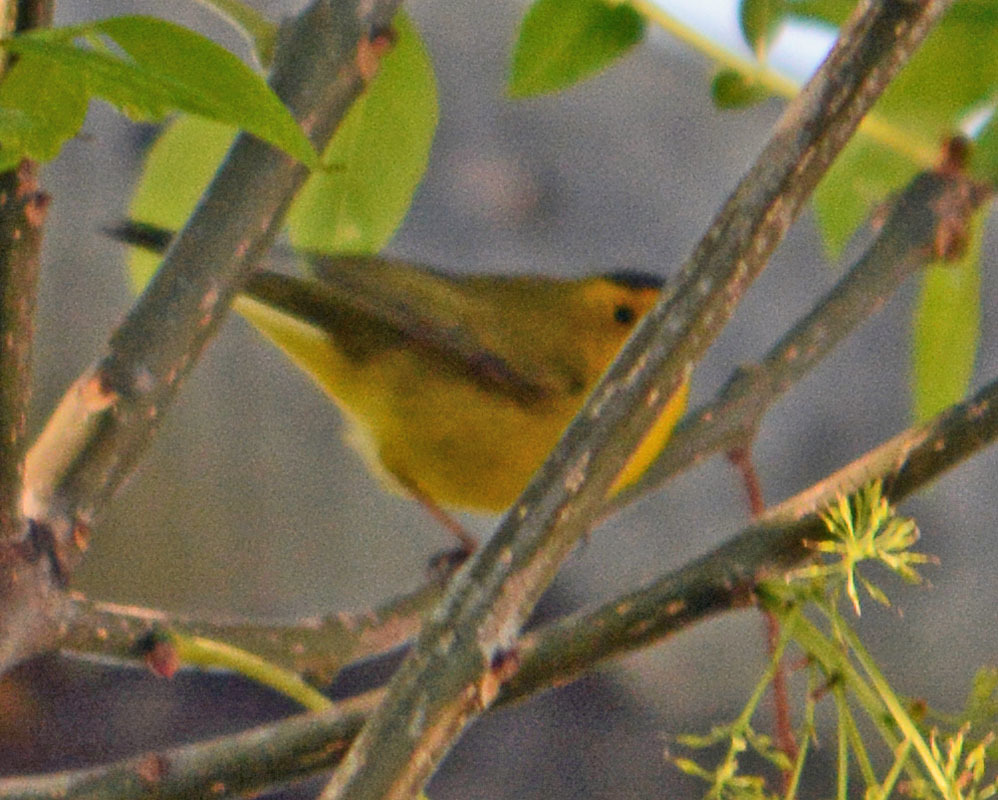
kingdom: Animalia
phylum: Chordata
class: Aves
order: Passeriformes
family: Parulidae
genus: Cardellina
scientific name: Cardellina pusilla
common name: Wilson's warbler
